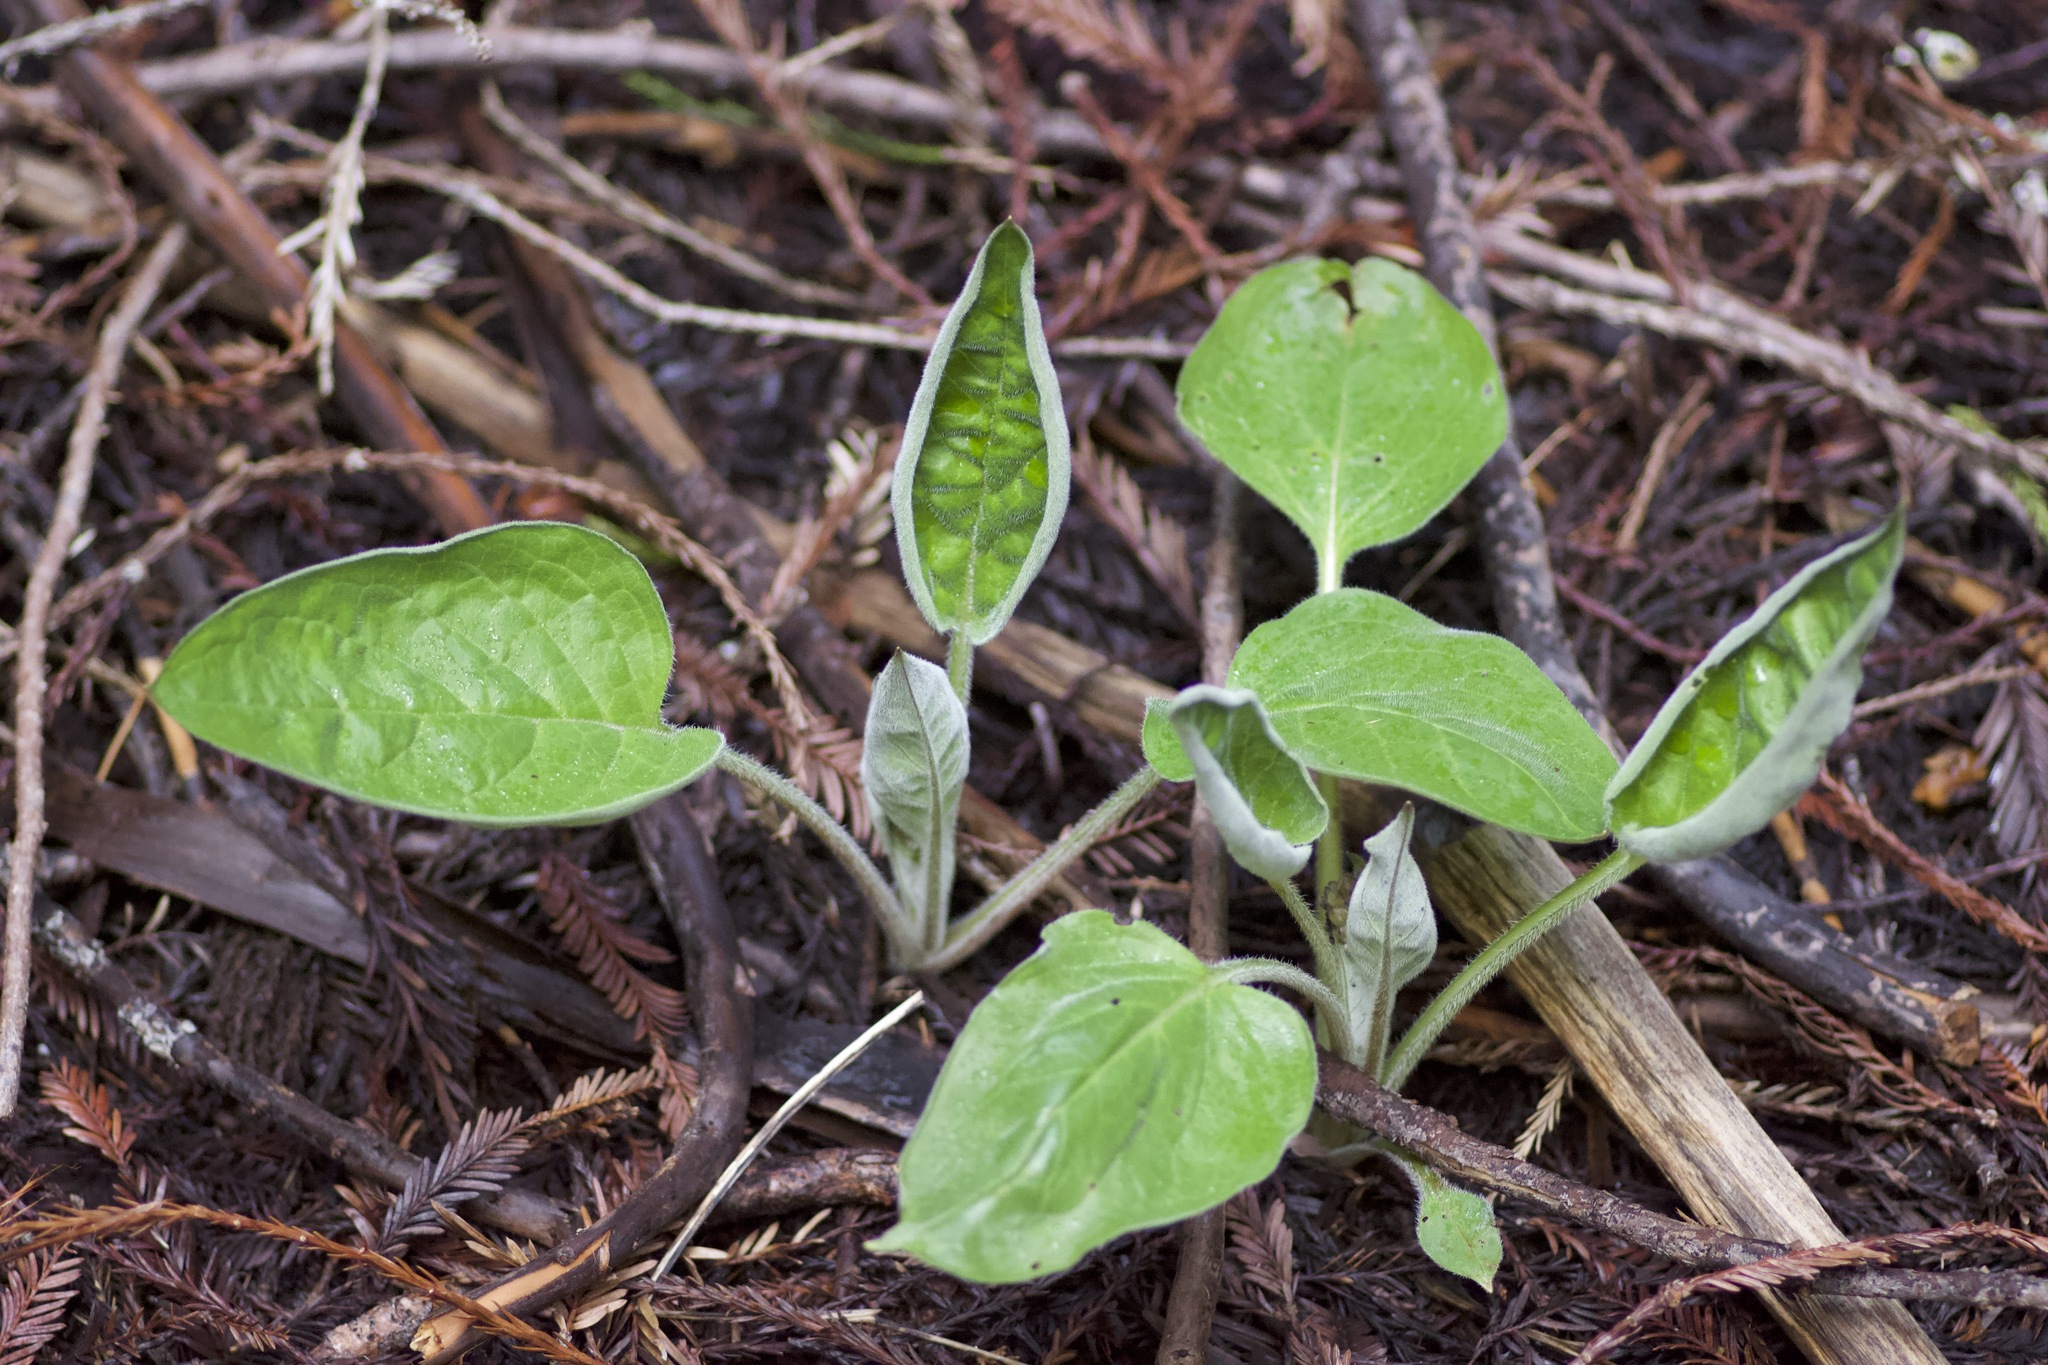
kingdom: Plantae
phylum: Tracheophyta
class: Magnoliopsida
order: Boraginales
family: Boraginaceae
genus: Adelinia
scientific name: Adelinia grande
